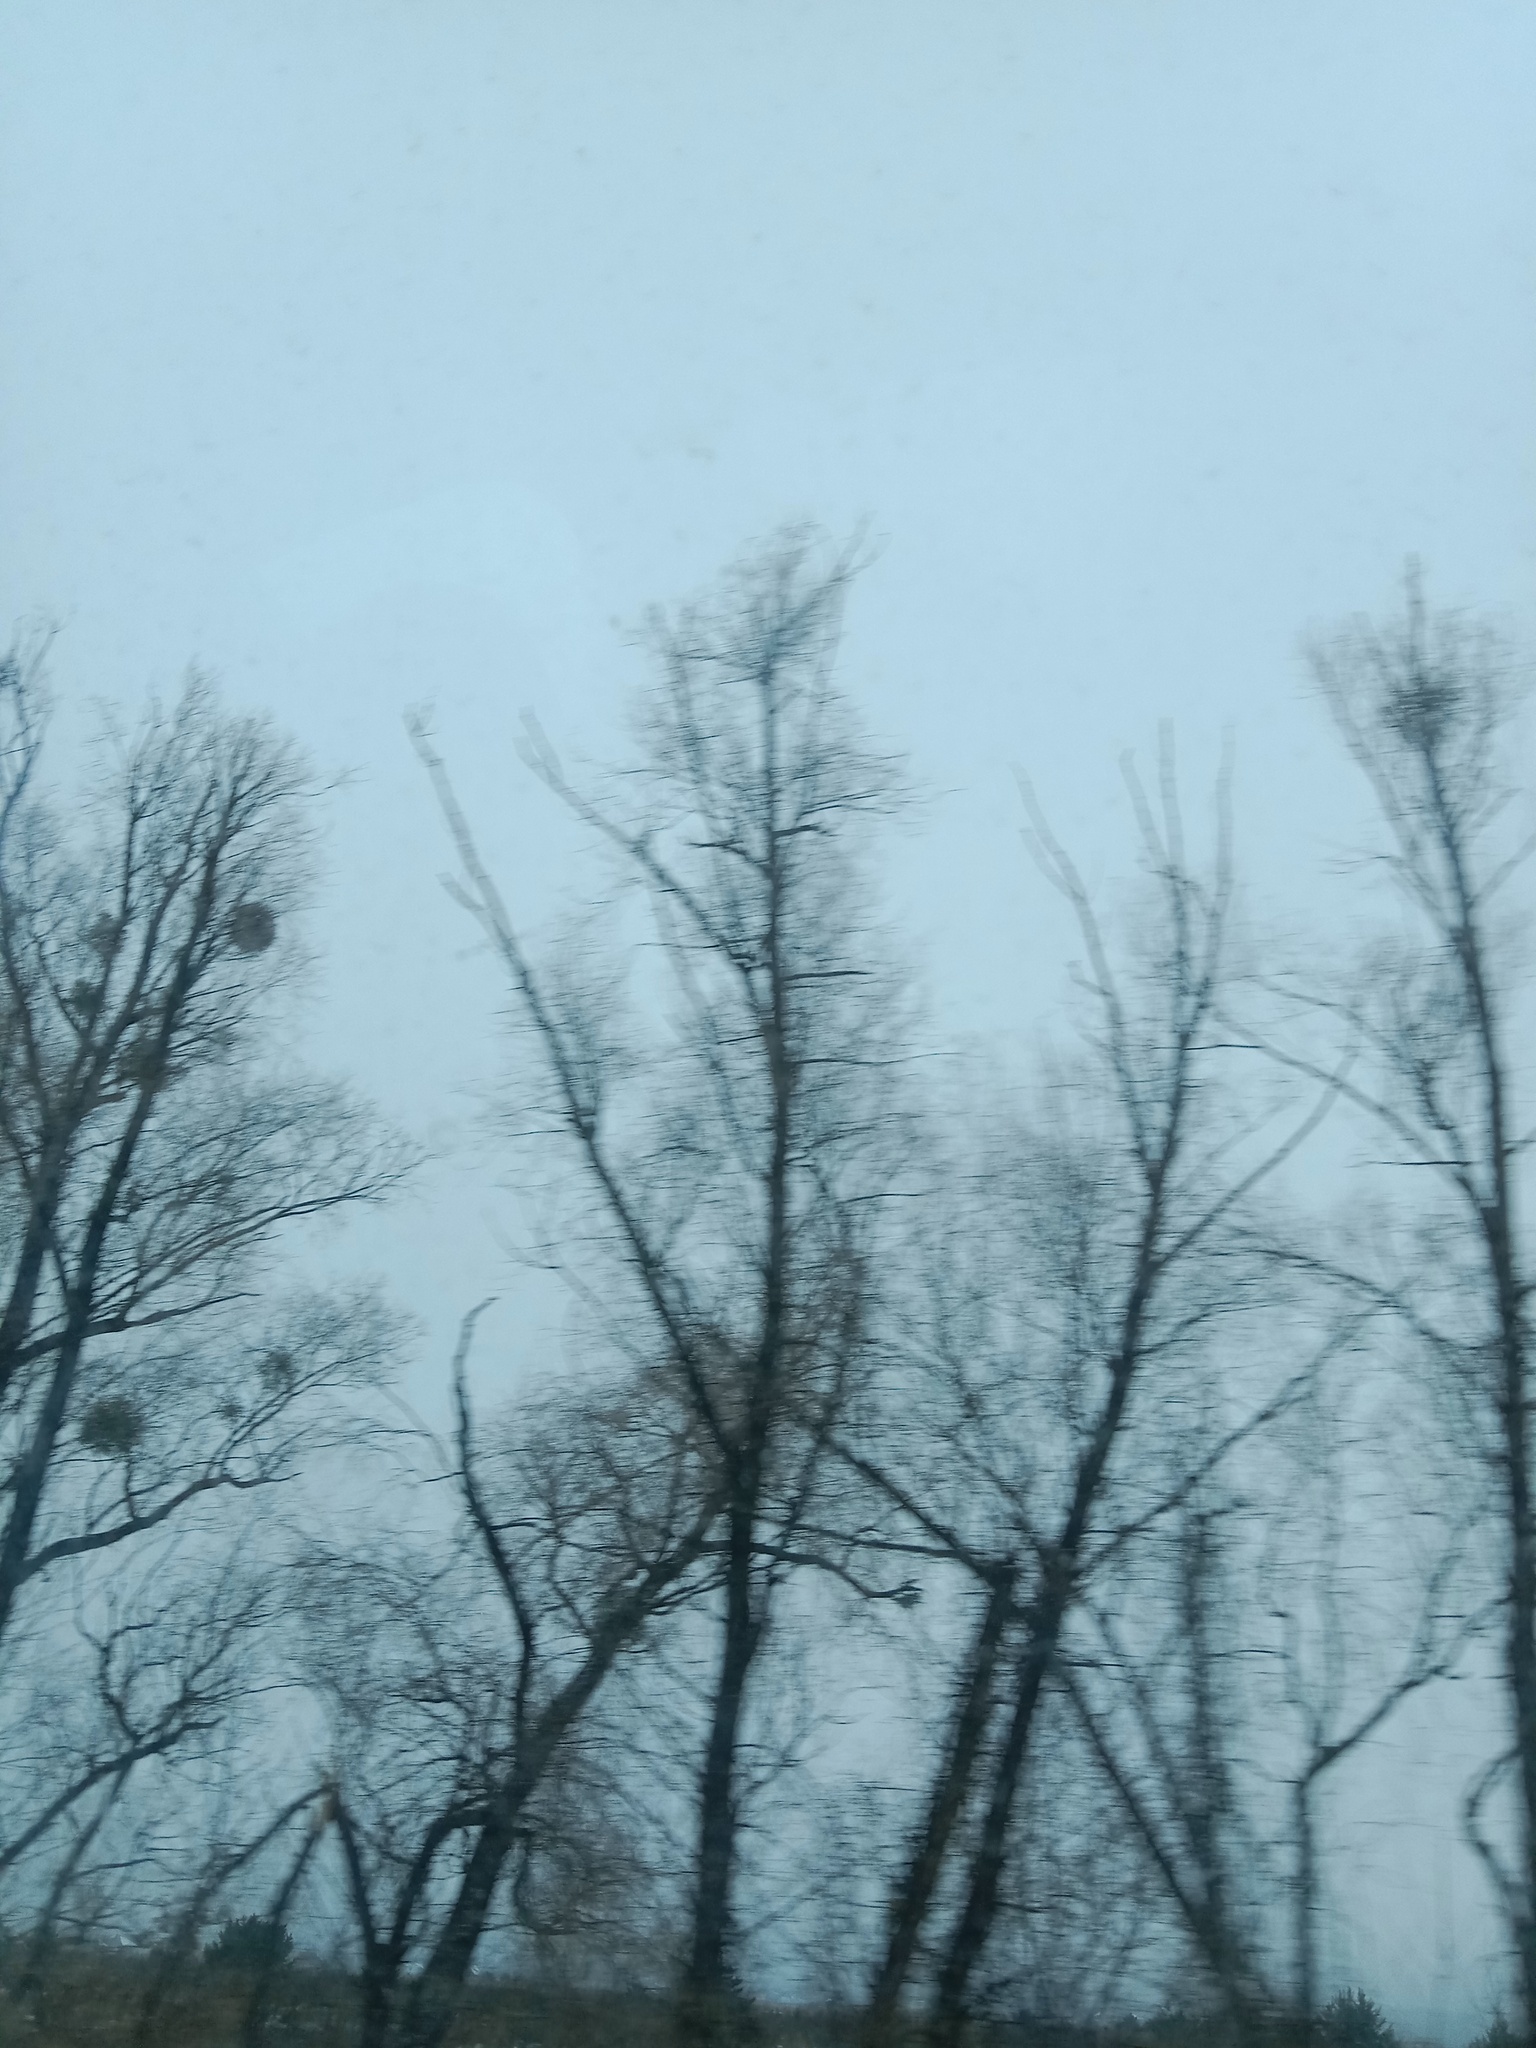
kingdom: Plantae
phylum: Tracheophyta
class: Magnoliopsida
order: Santalales
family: Viscaceae
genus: Viscum
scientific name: Viscum album
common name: Mistletoe
